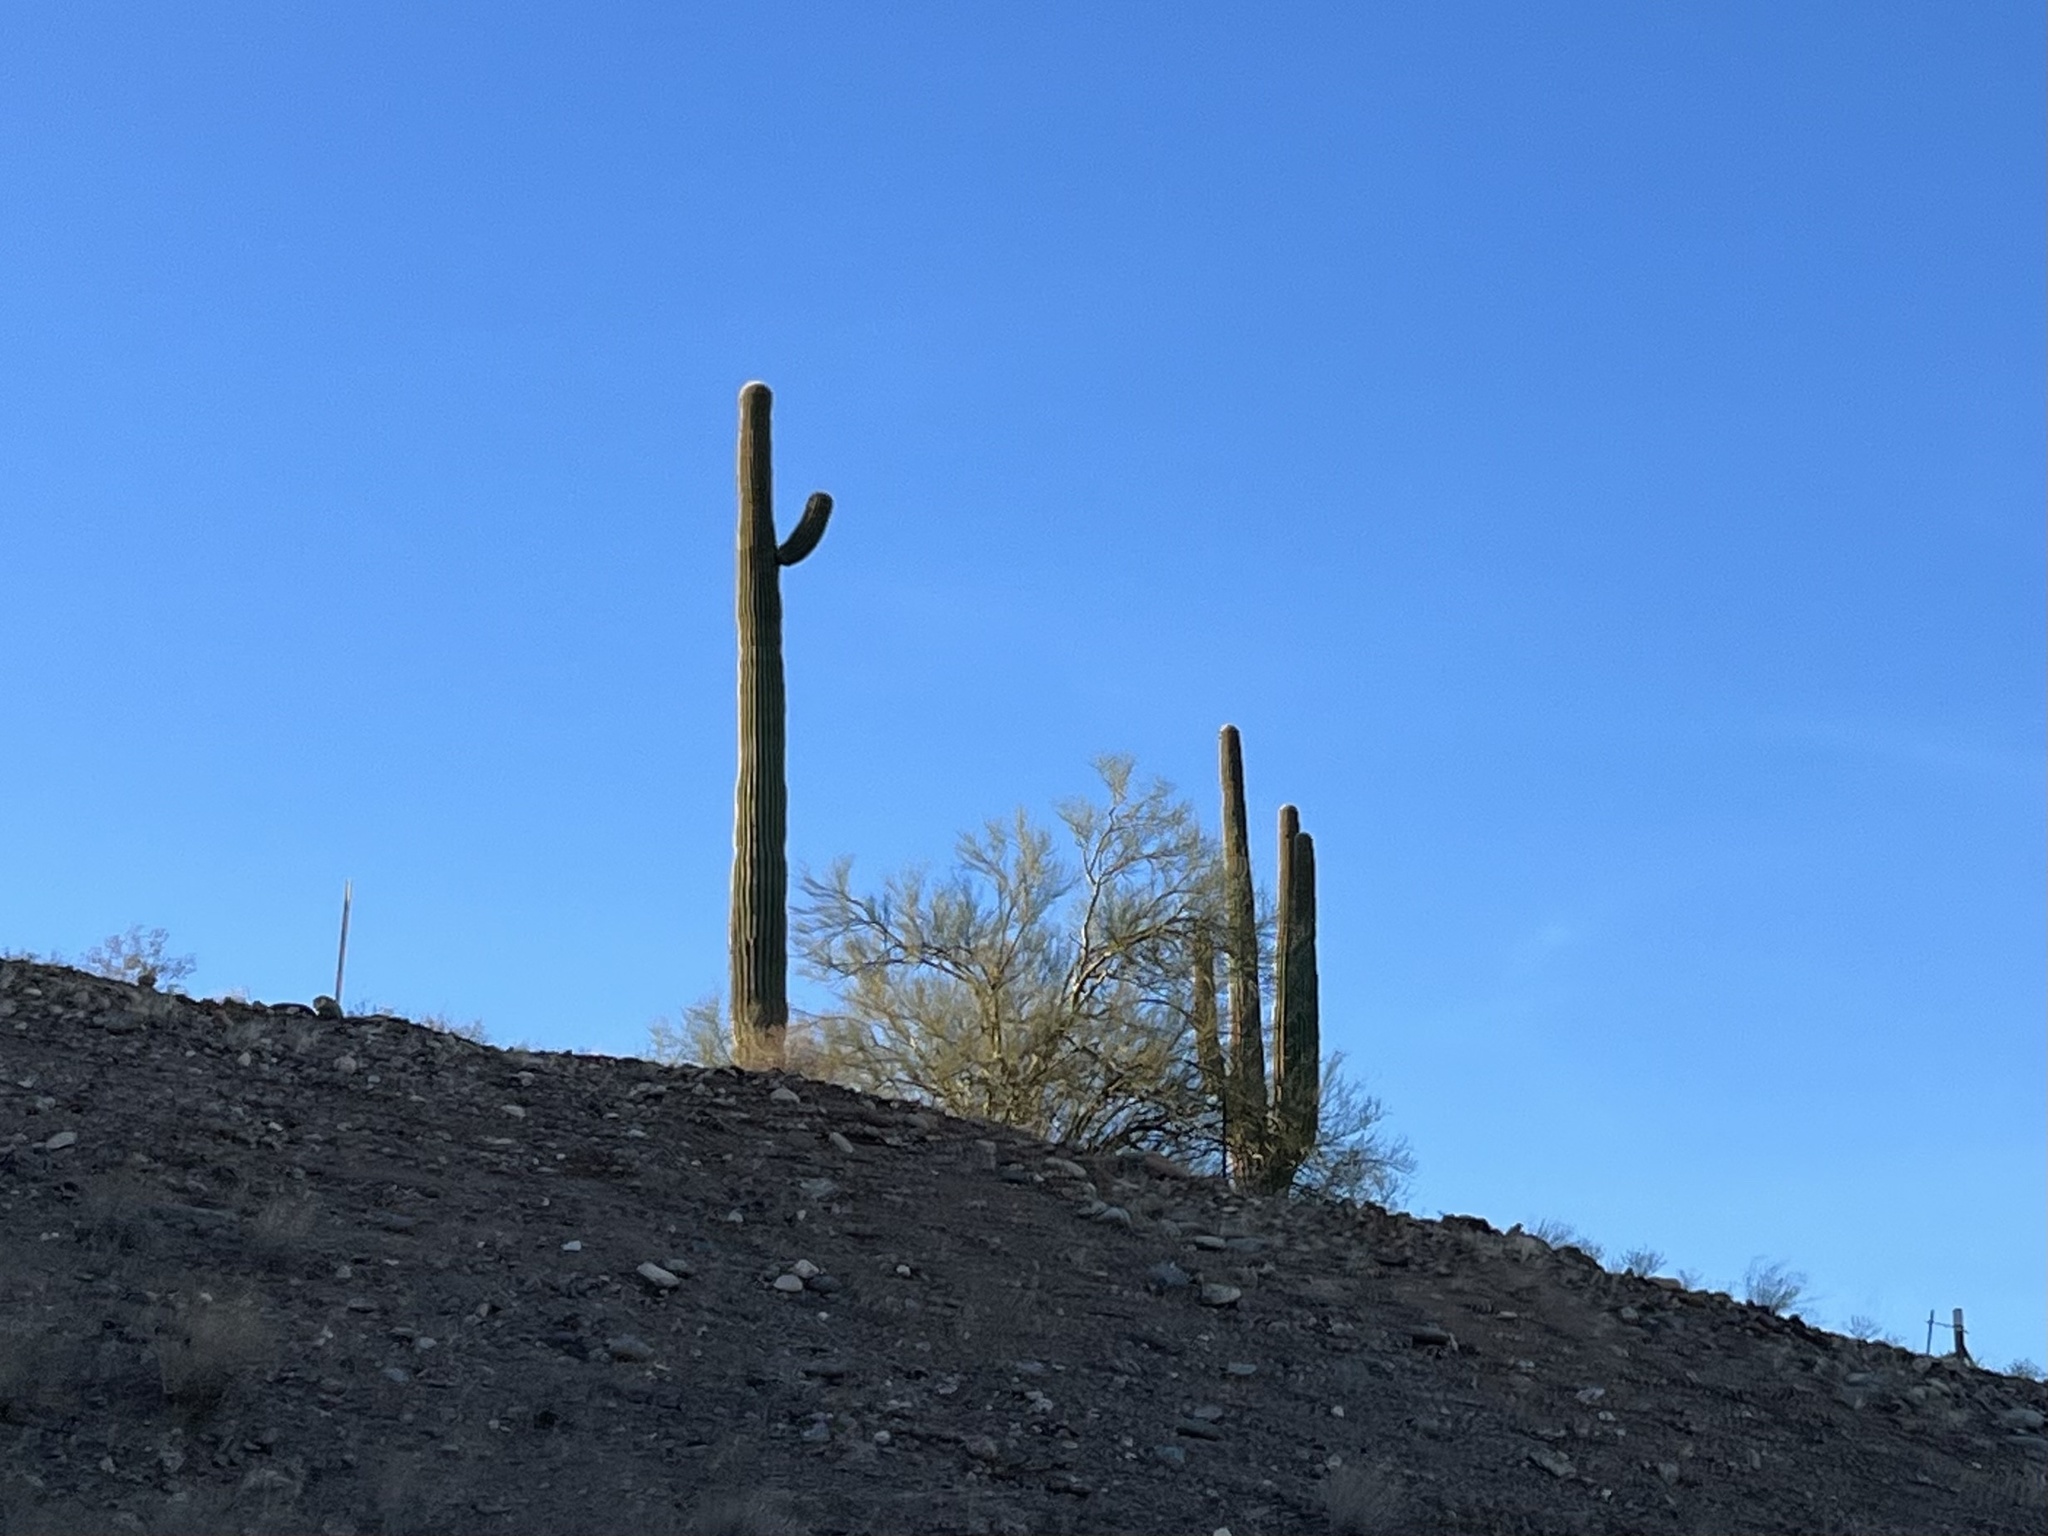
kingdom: Plantae
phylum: Tracheophyta
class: Magnoliopsida
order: Caryophyllales
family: Cactaceae
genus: Carnegiea
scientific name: Carnegiea gigantea
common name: Saguaro
